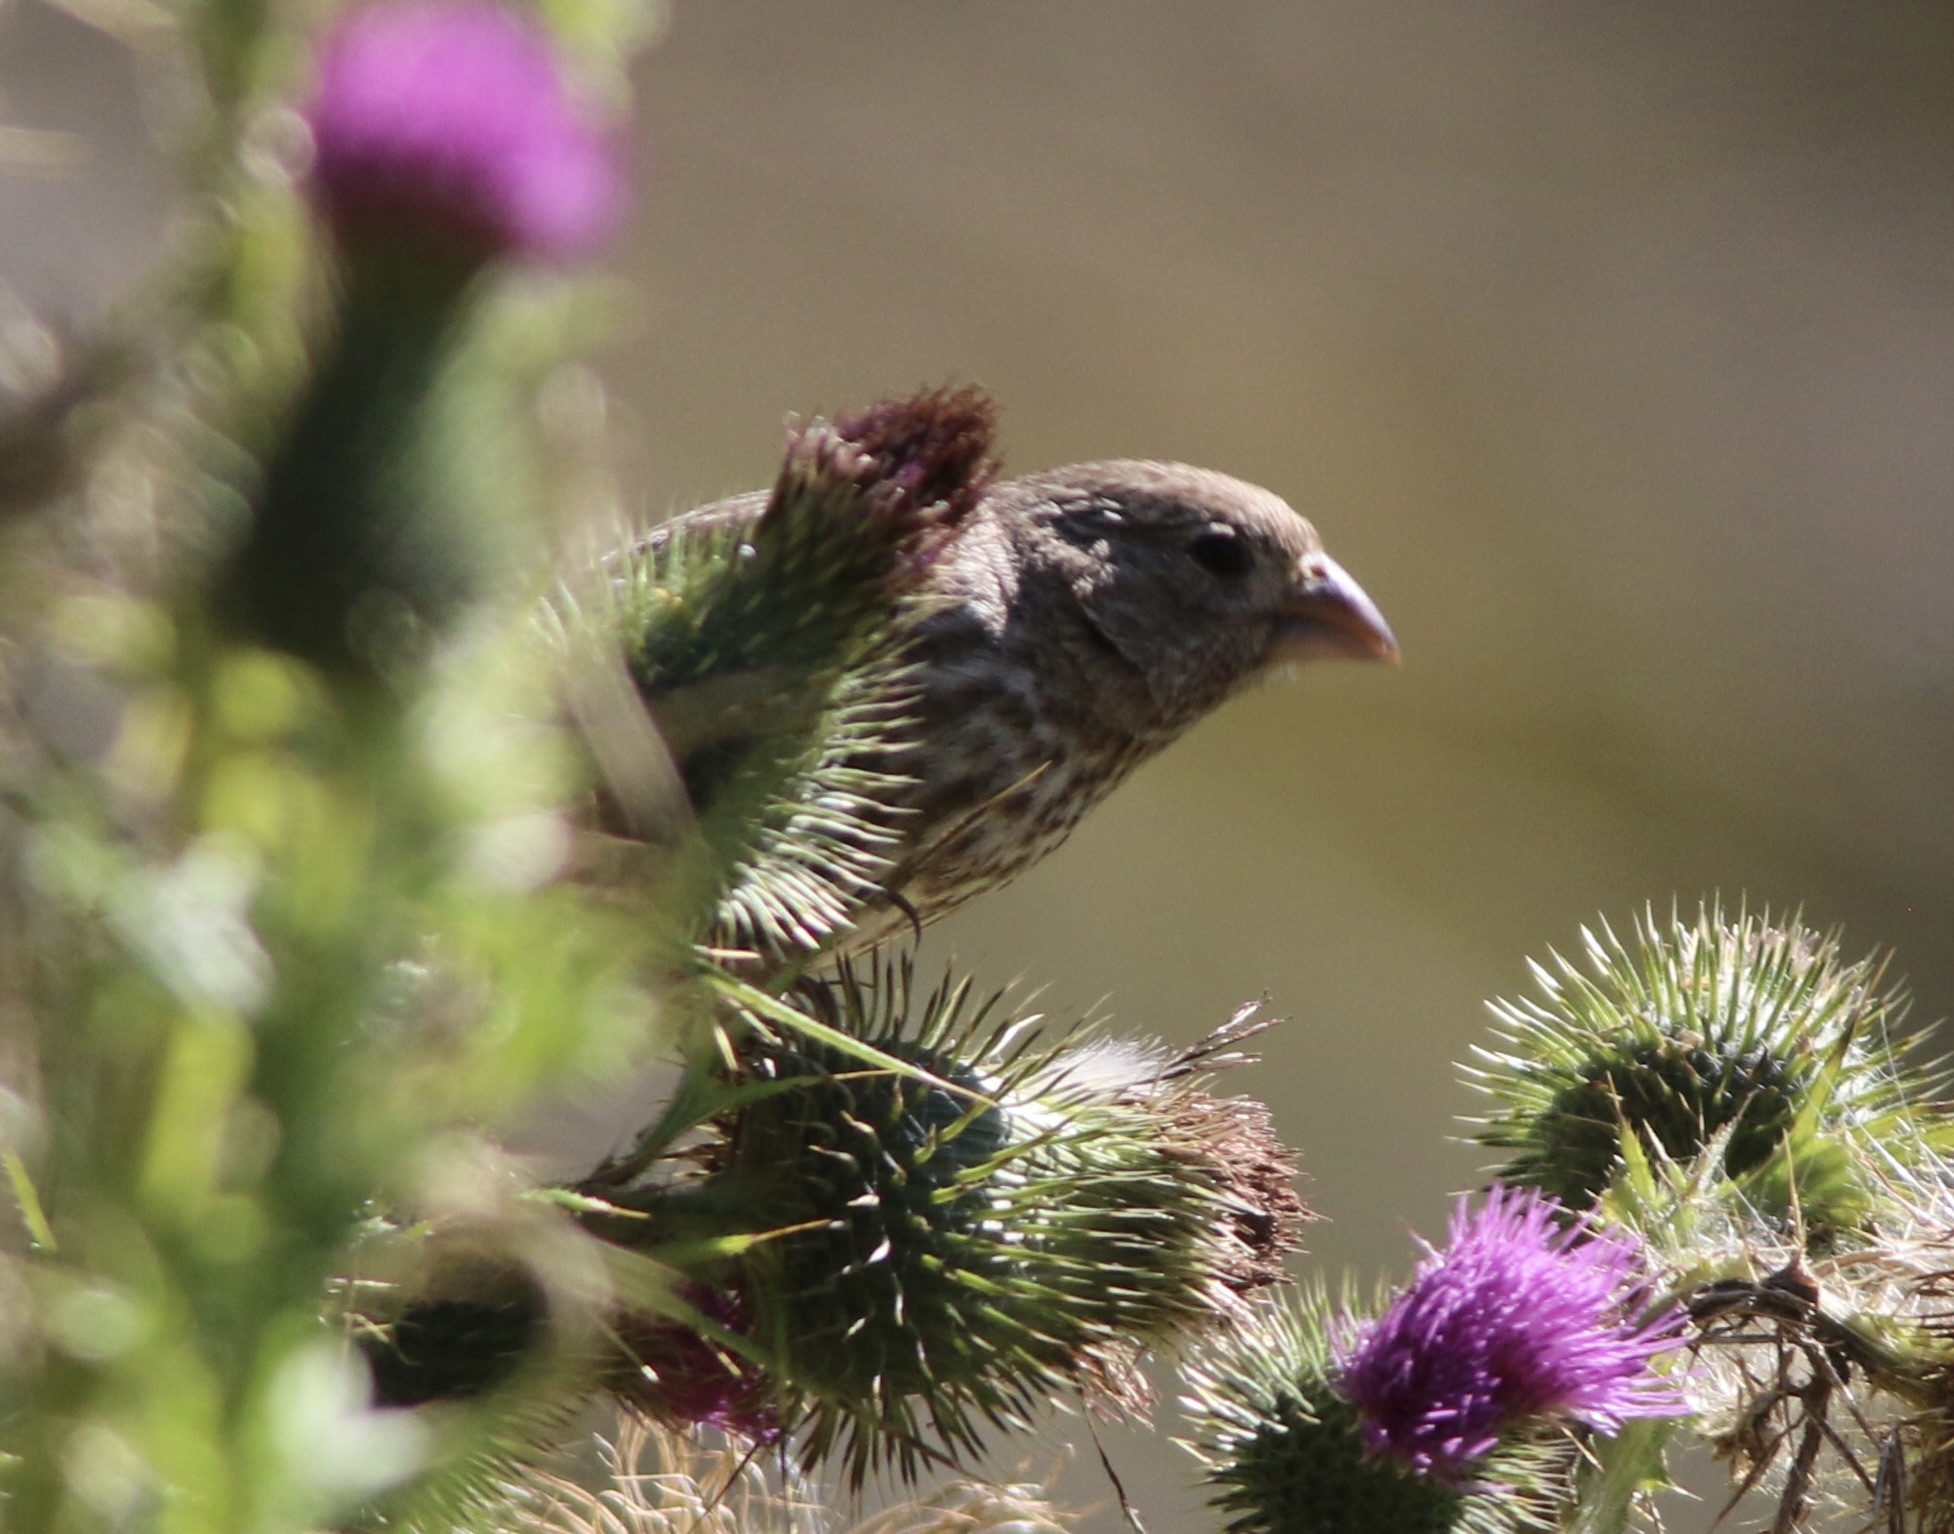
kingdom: Animalia
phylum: Chordata
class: Aves
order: Passeriformes
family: Fringillidae
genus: Haemorhous
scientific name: Haemorhous mexicanus
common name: House finch
